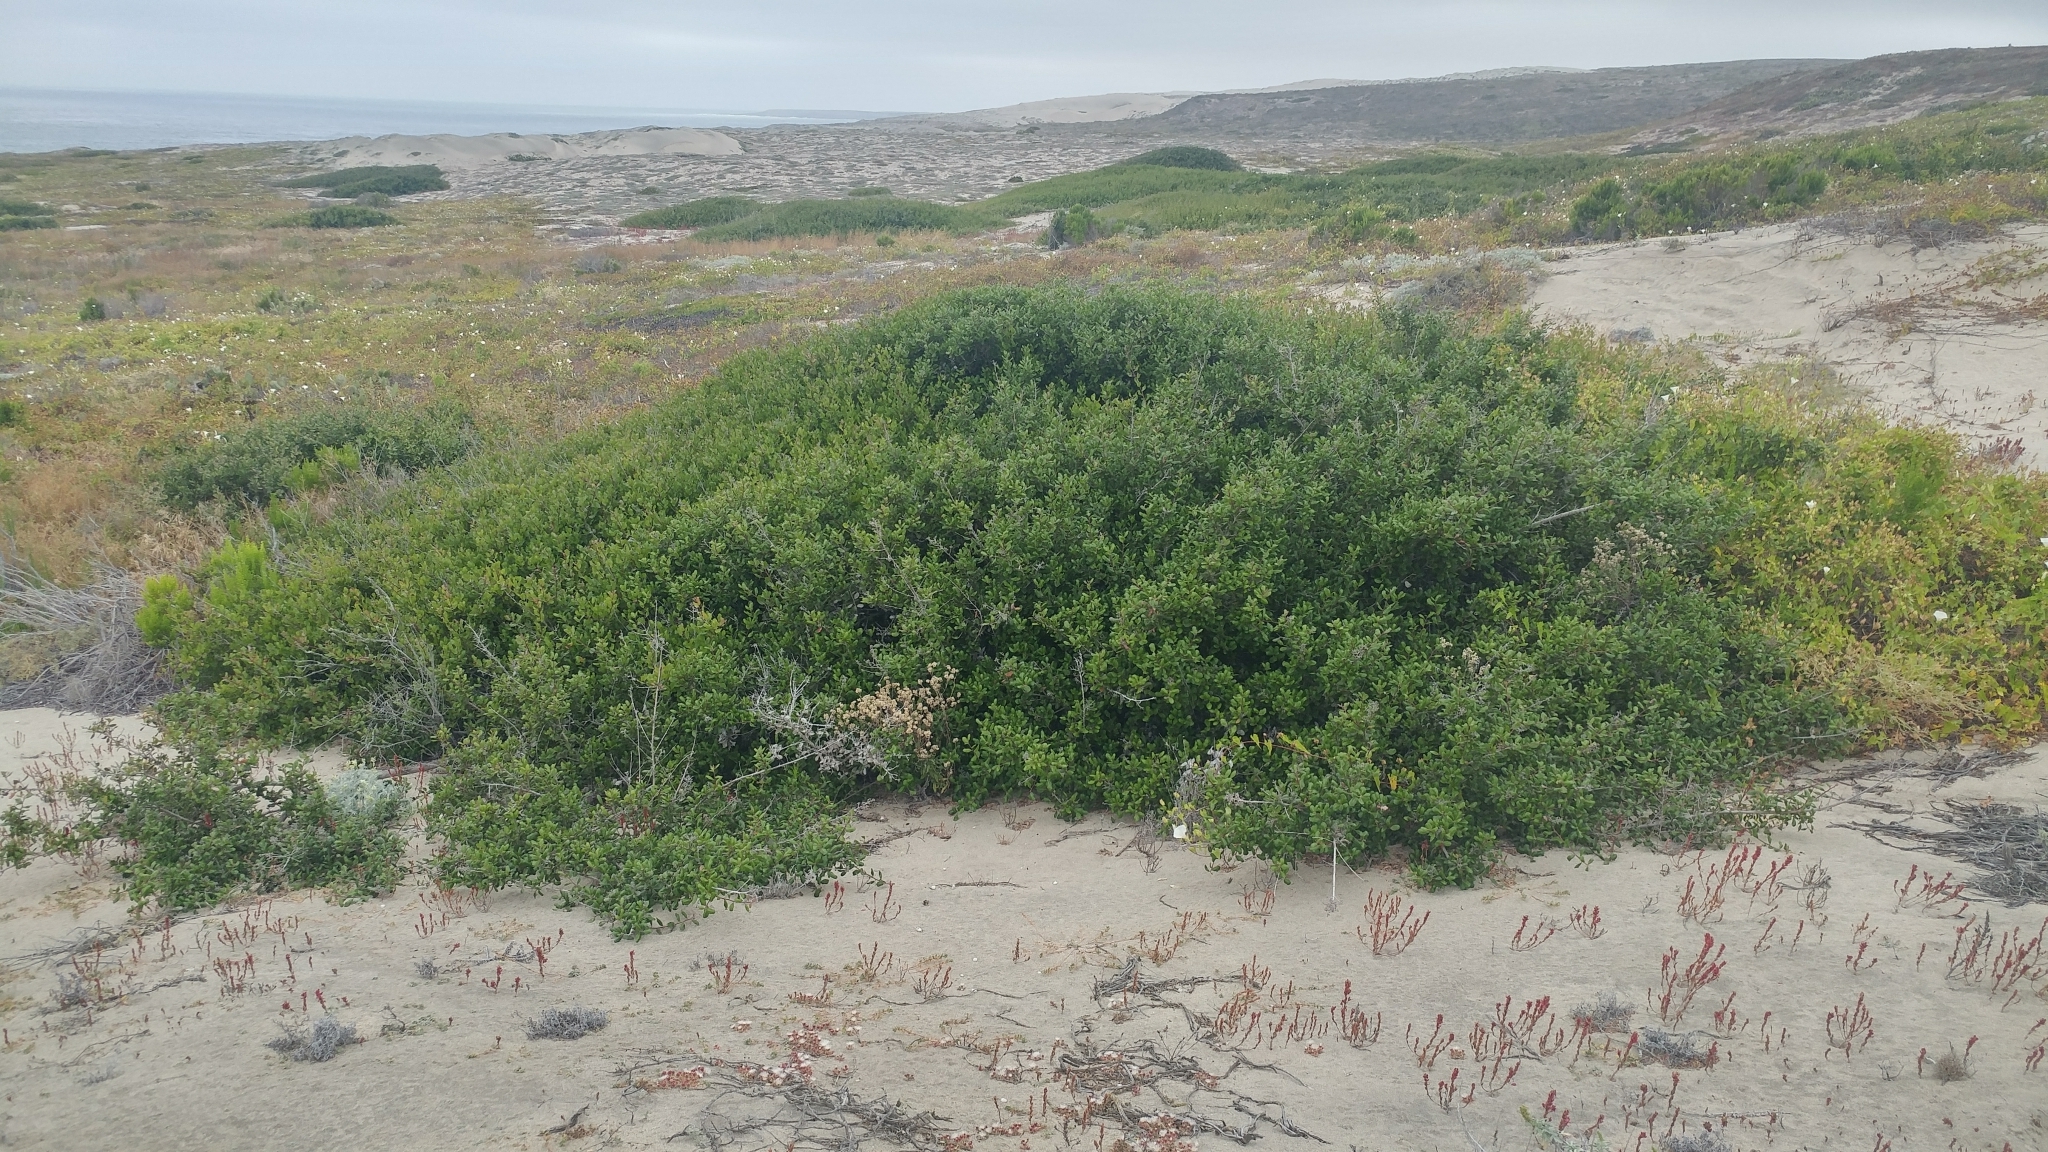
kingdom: Plantae
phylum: Tracheophyta
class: Magnoliopsida
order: Sapindales
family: Anacardiaceae
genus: Rhus
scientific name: Rhus integrifolia
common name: Lemonade sumac
